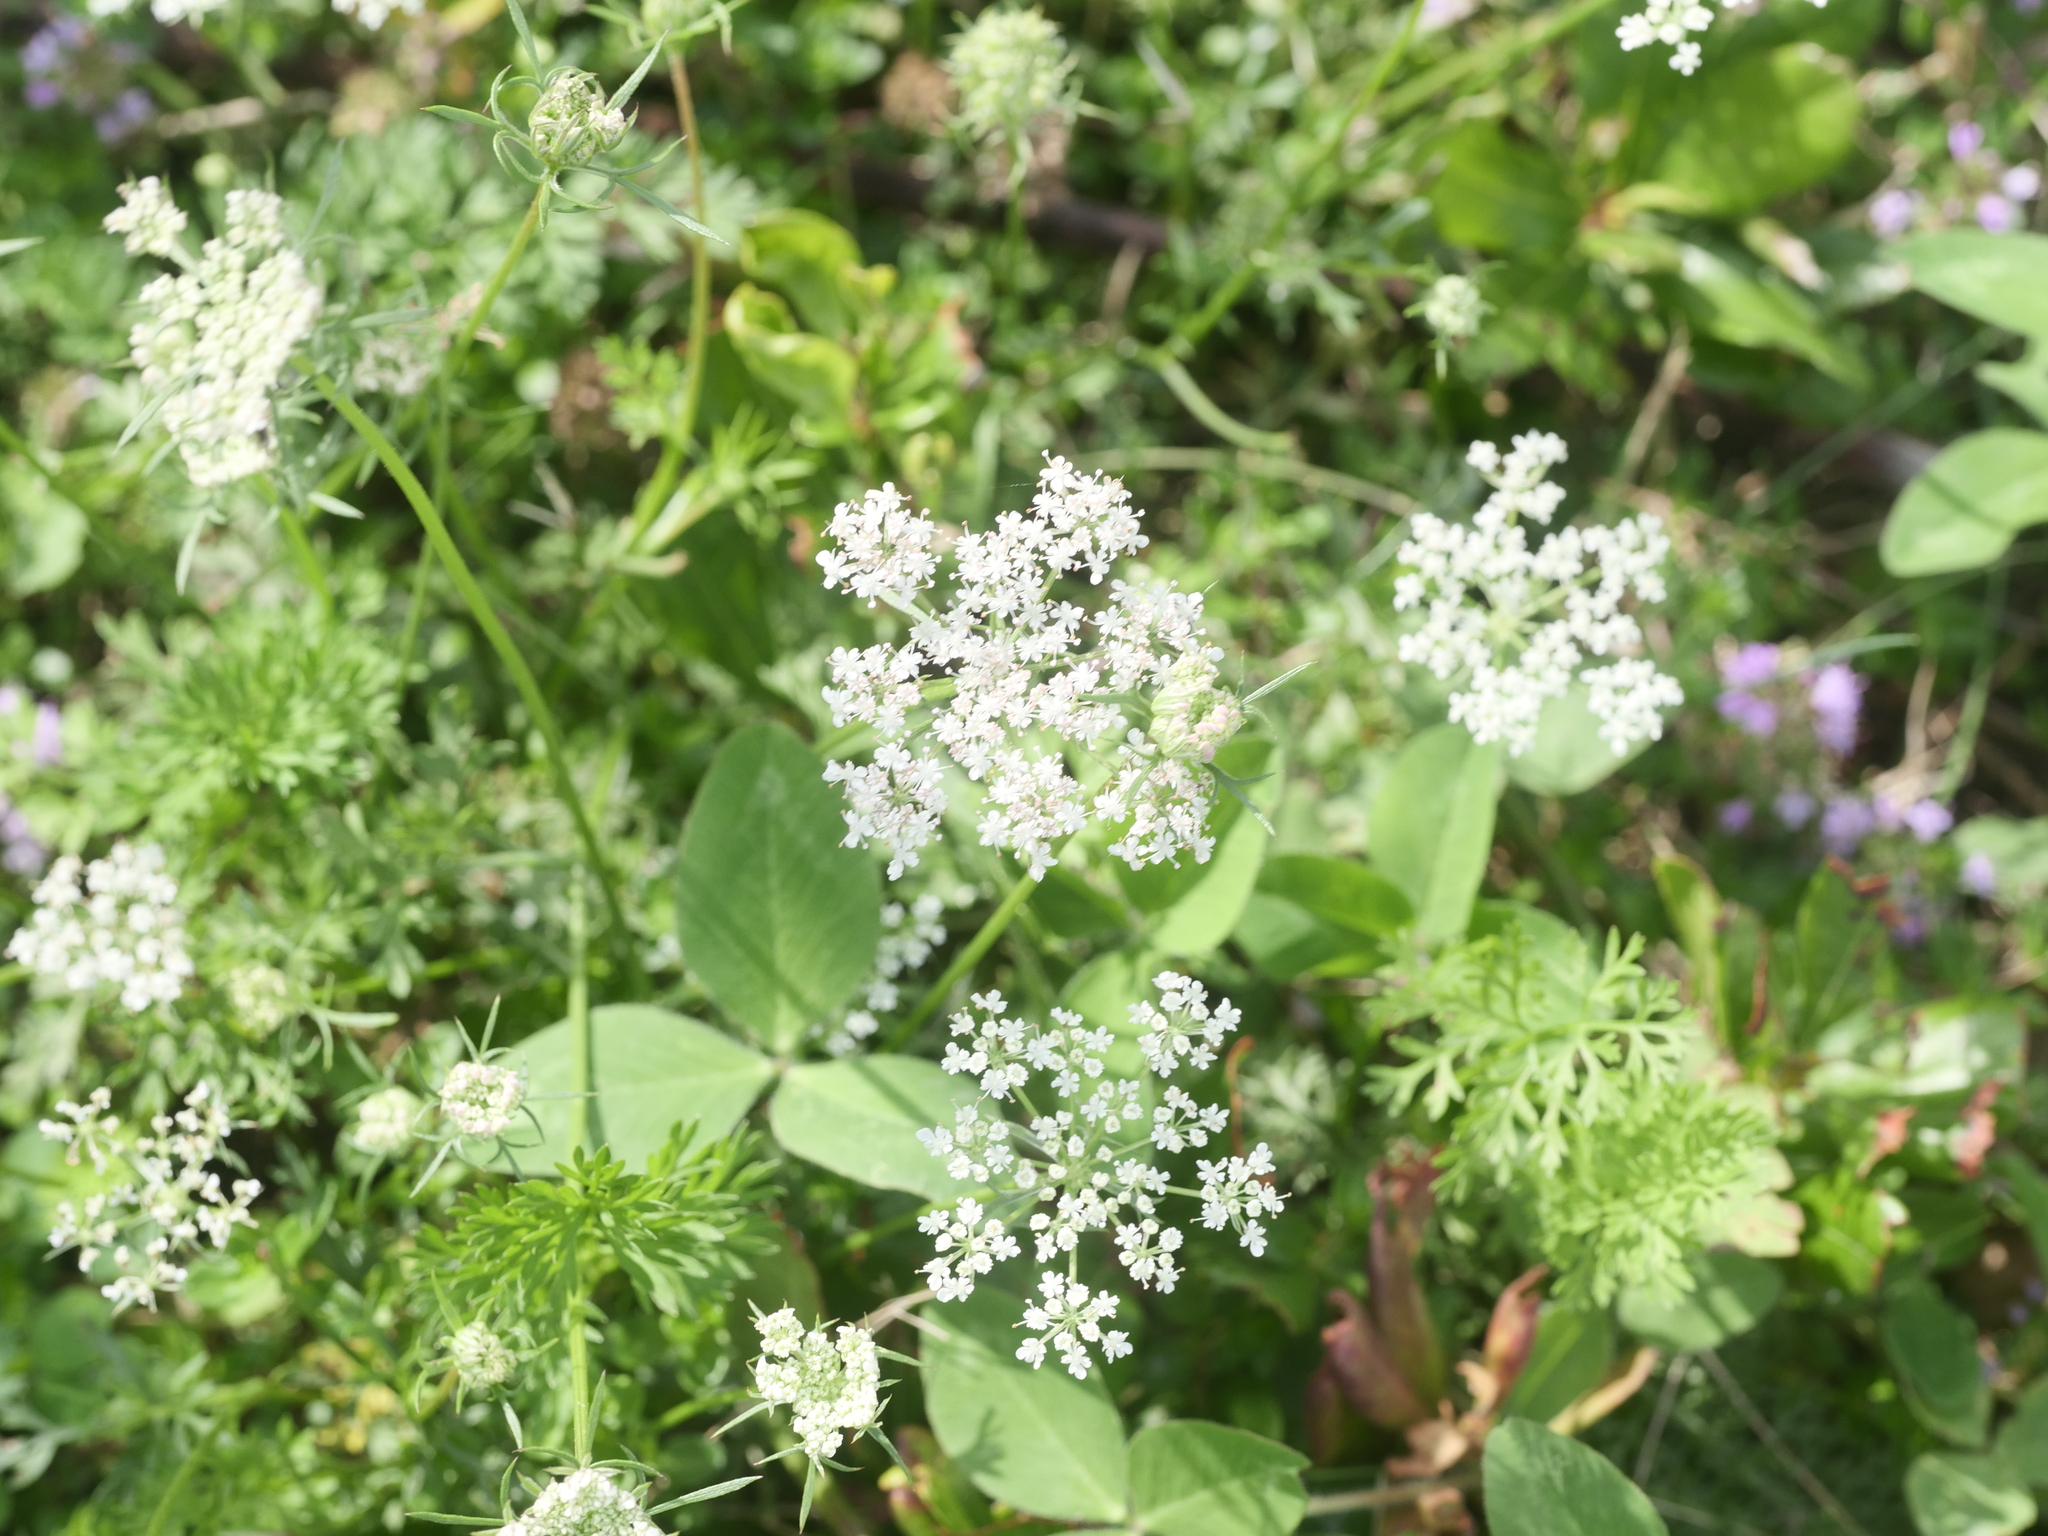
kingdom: Plantae
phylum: Tracheophyta
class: Magnoliopsida
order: Apiales
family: Apiaceae
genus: Daucus
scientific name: Daucus carota
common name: Wild carrot
